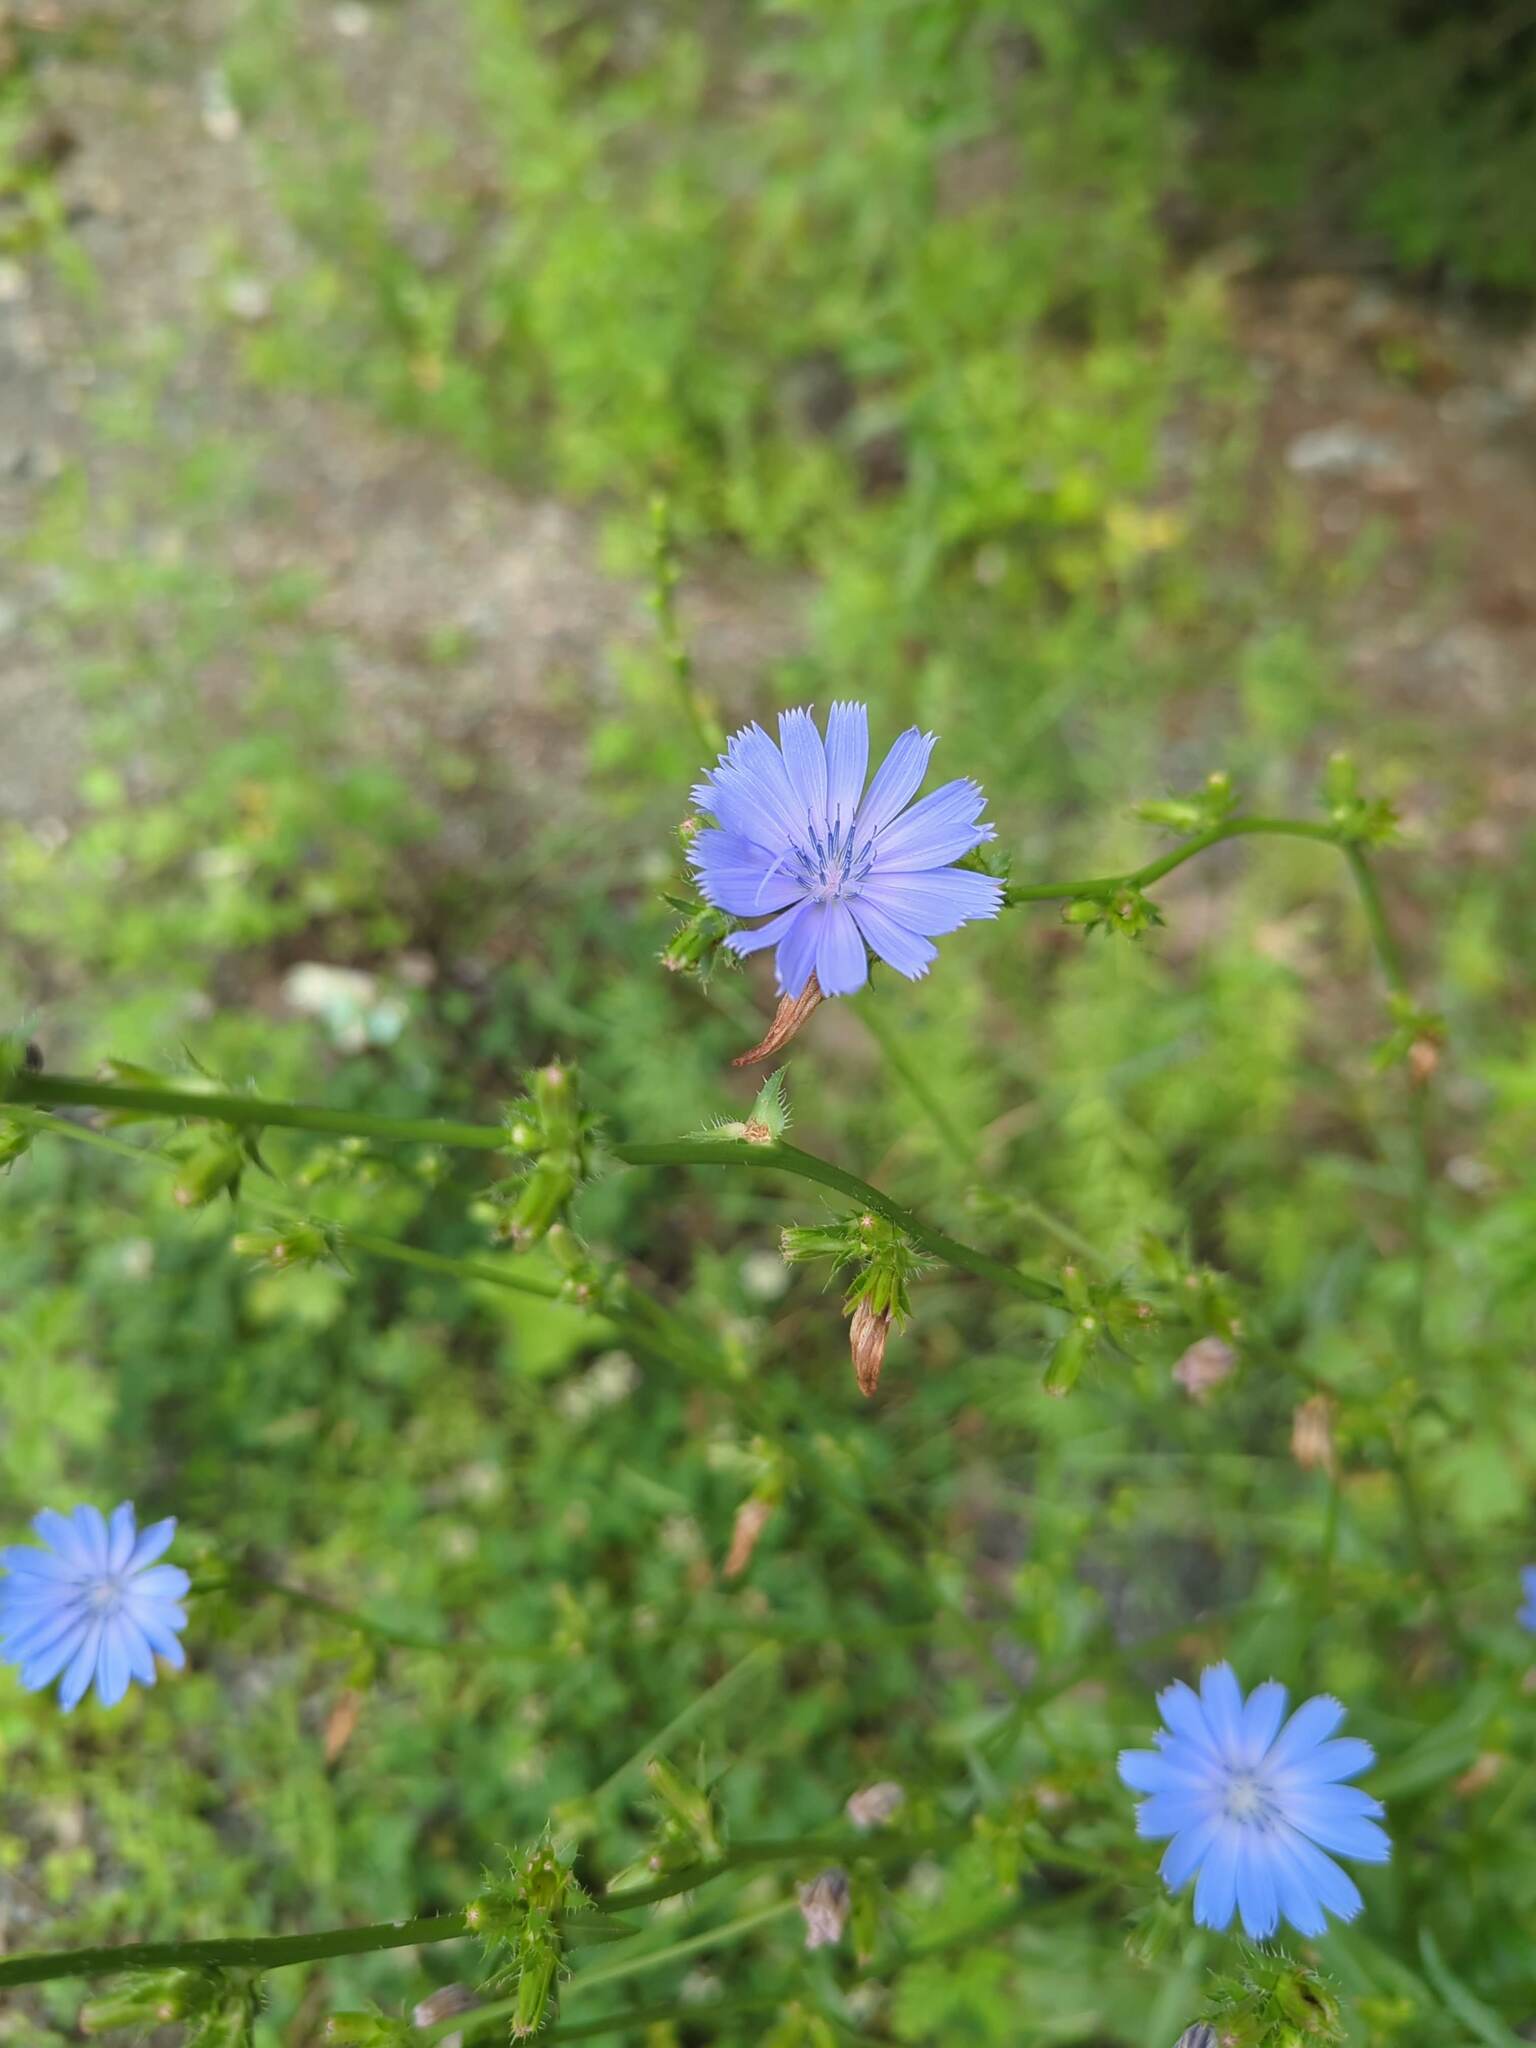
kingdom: Plantae
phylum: Tracheophyta
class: Magnoliopsida
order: Asterales
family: Asteraceae
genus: Cichorium
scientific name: Cichorium intybus
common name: Chicory
